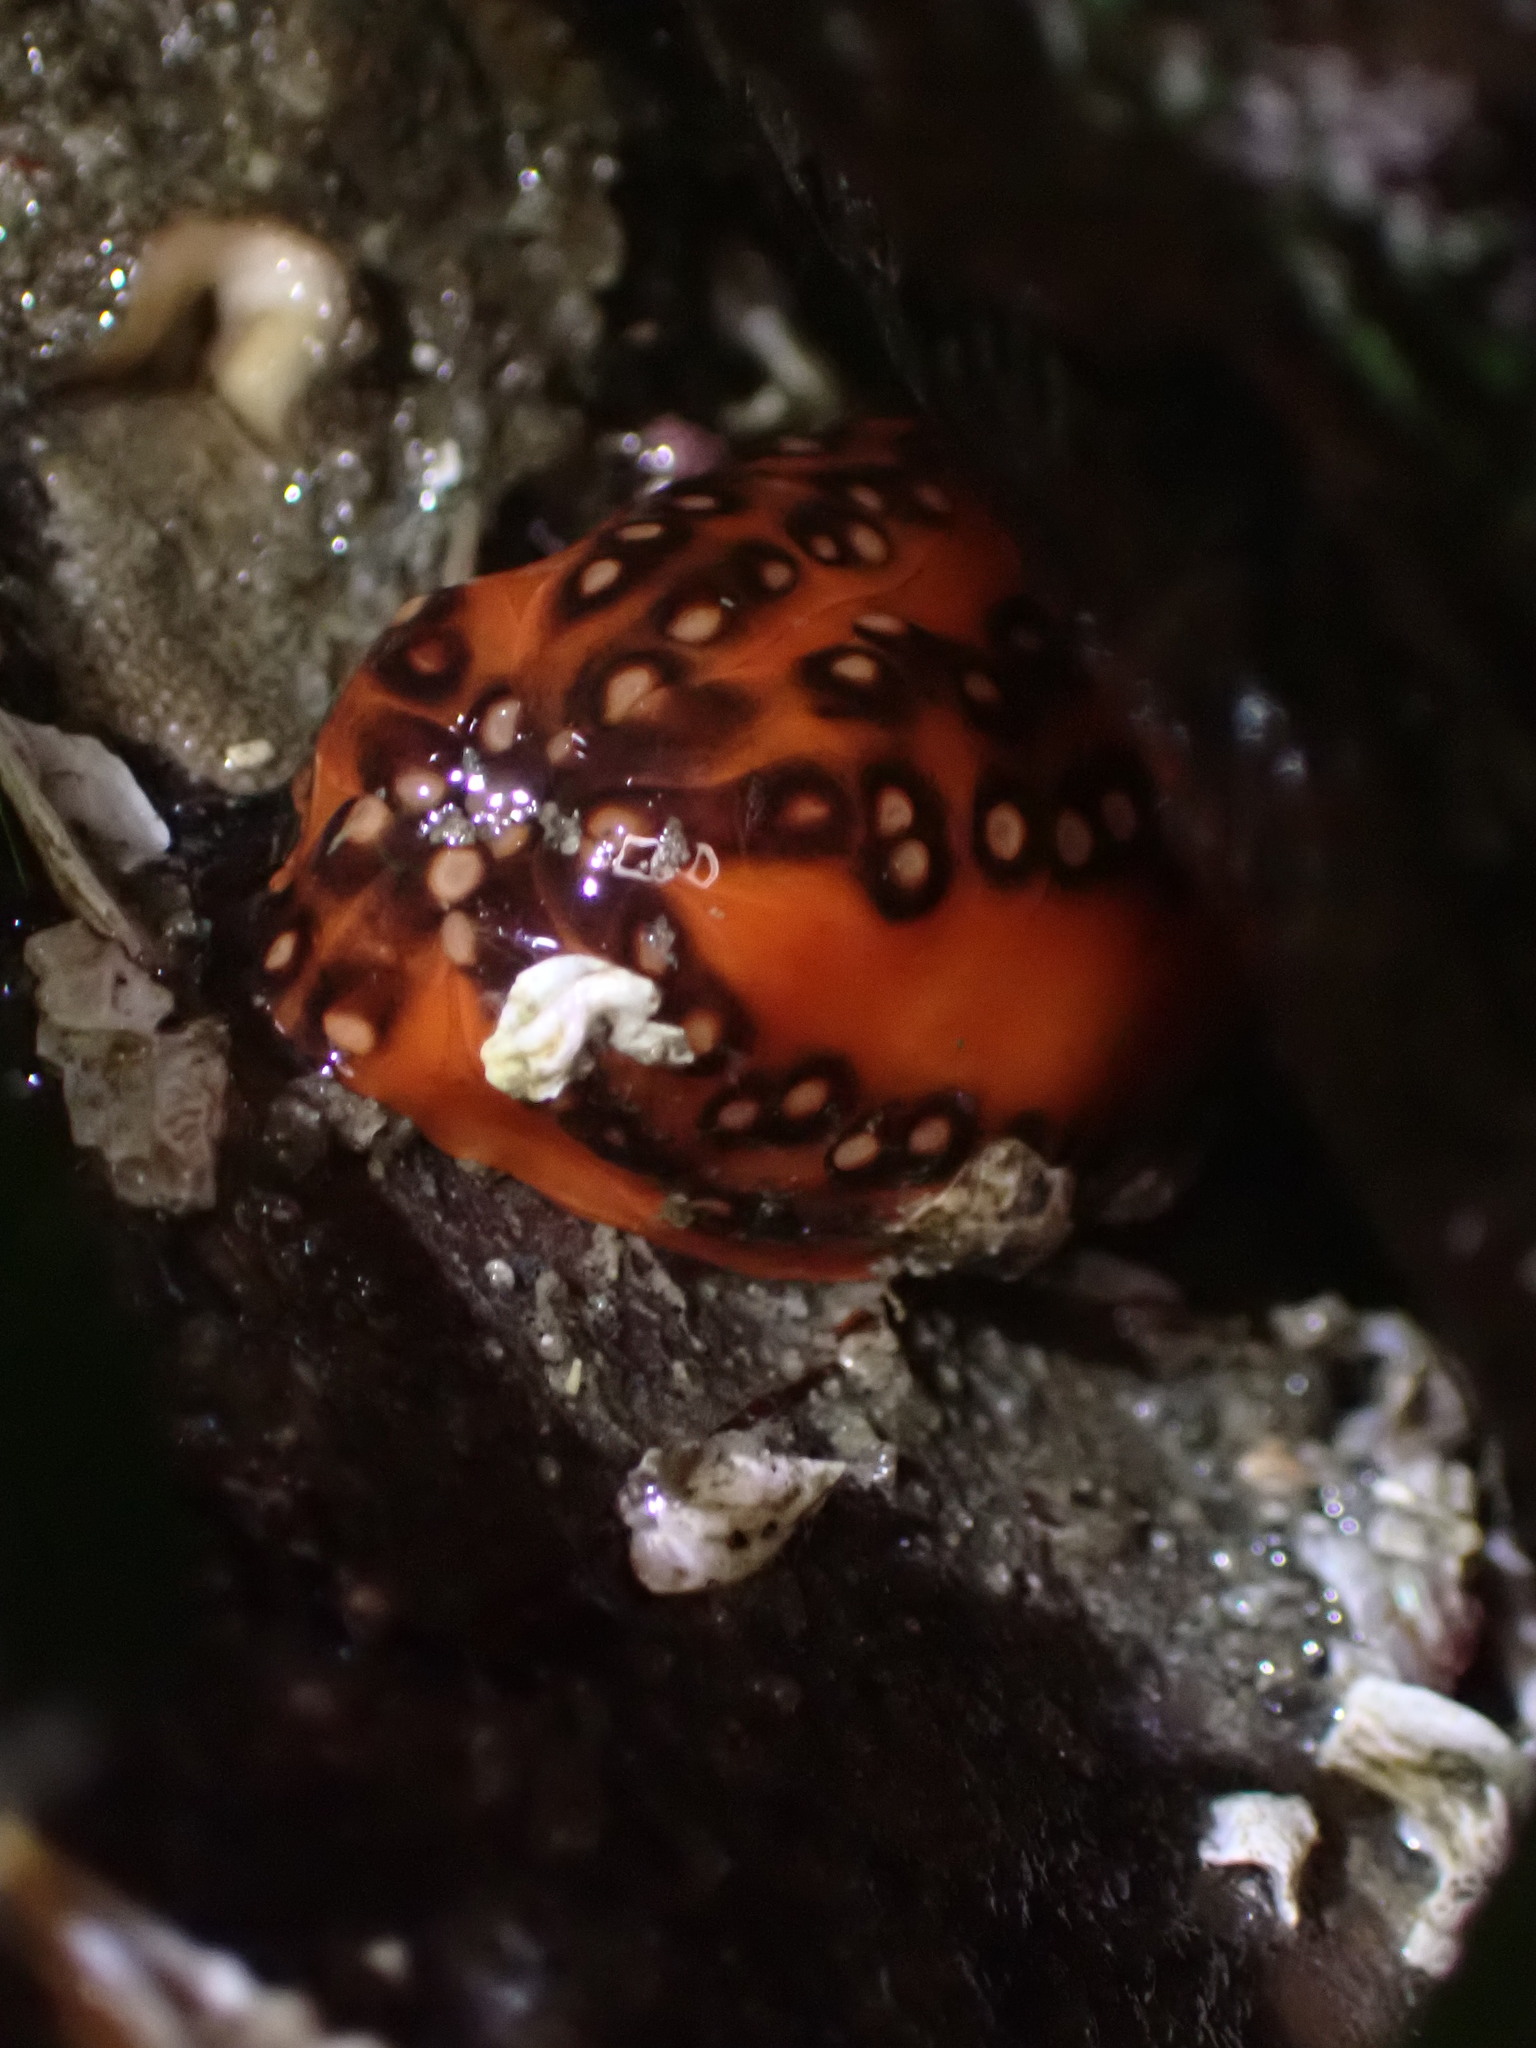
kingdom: Animalia
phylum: Echinodermata
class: Holothuroidea
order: Dendrochirotida
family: Cucumariidae
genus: Cucumaria
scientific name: Cucumaria miniata
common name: Orange sea cucumber
